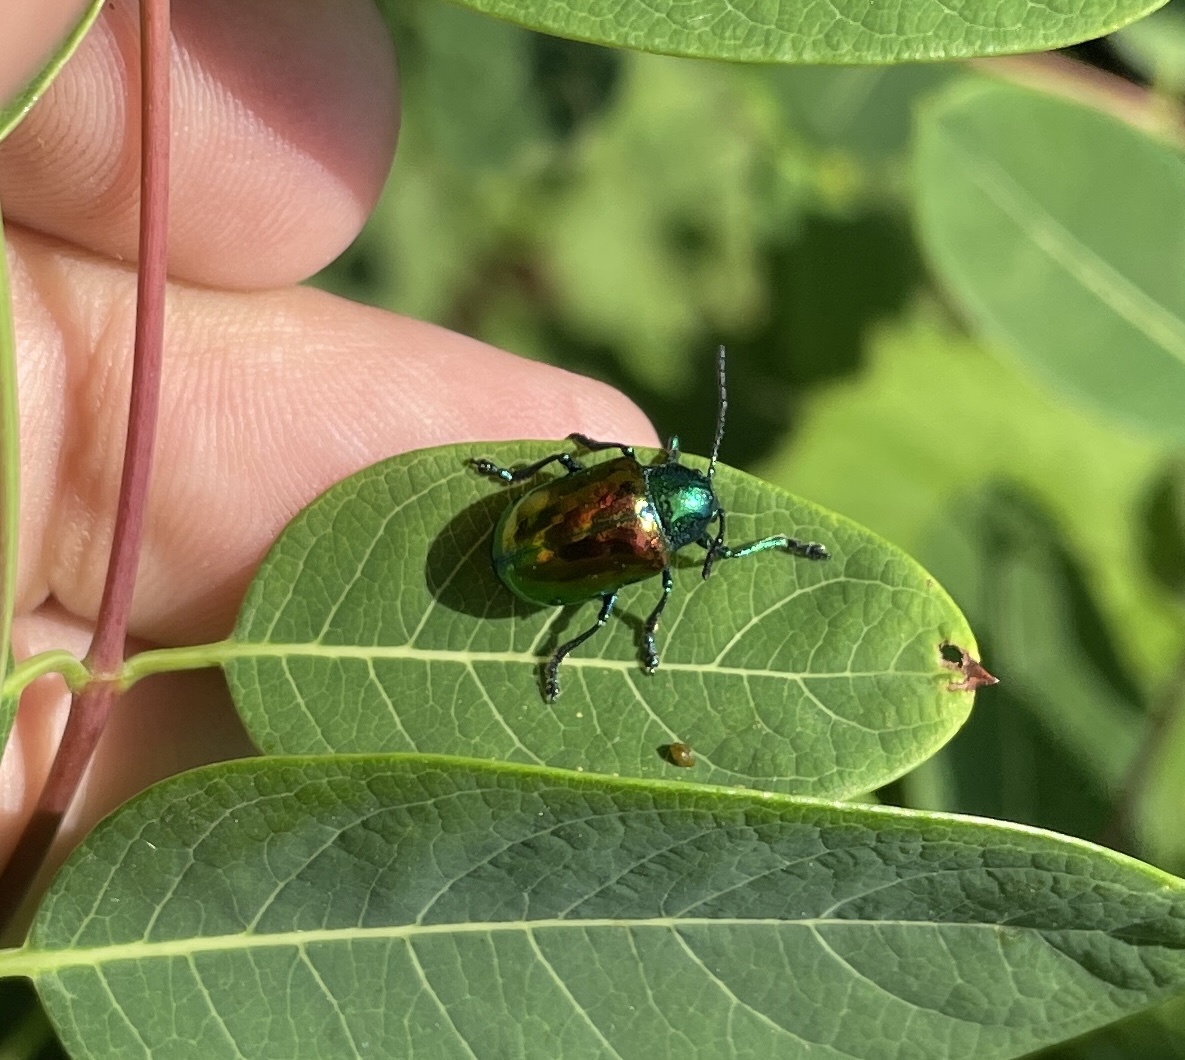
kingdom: Animalia
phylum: Arthropoda
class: Insecta
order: Coleoptera
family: Chrysomelidae
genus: Chrysochus
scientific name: Chrysochus auratus
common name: Dogbane leaf beetle
